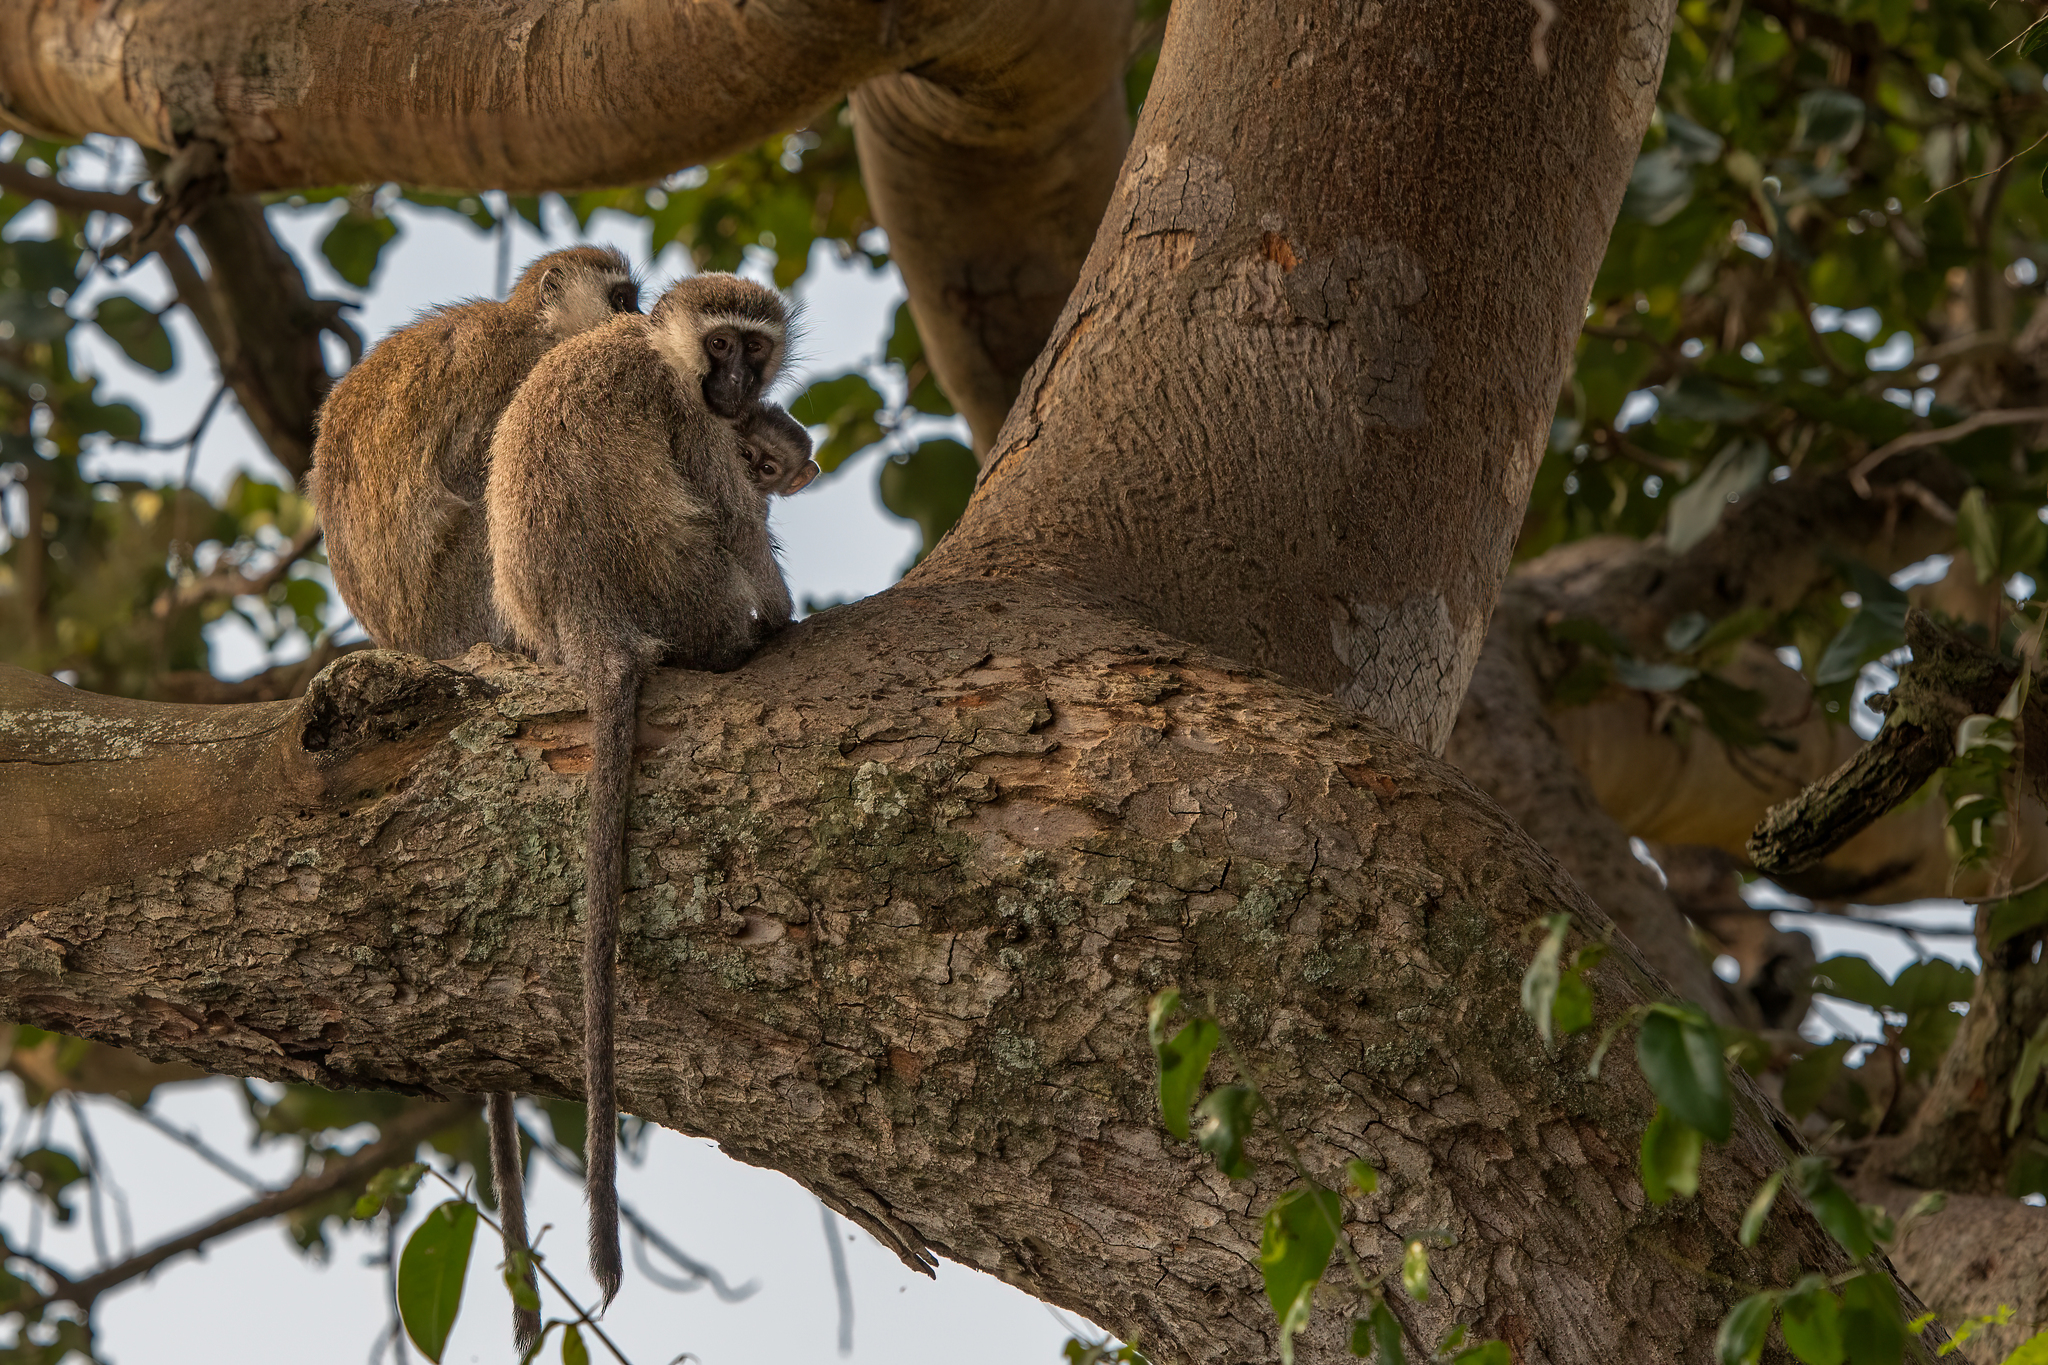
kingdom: Animalia
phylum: Chordata
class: Mammalia
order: Primates
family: Cercopithecidae
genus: Chlorocebus
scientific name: Chlorocebus tantalus
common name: Tantalus monkey
